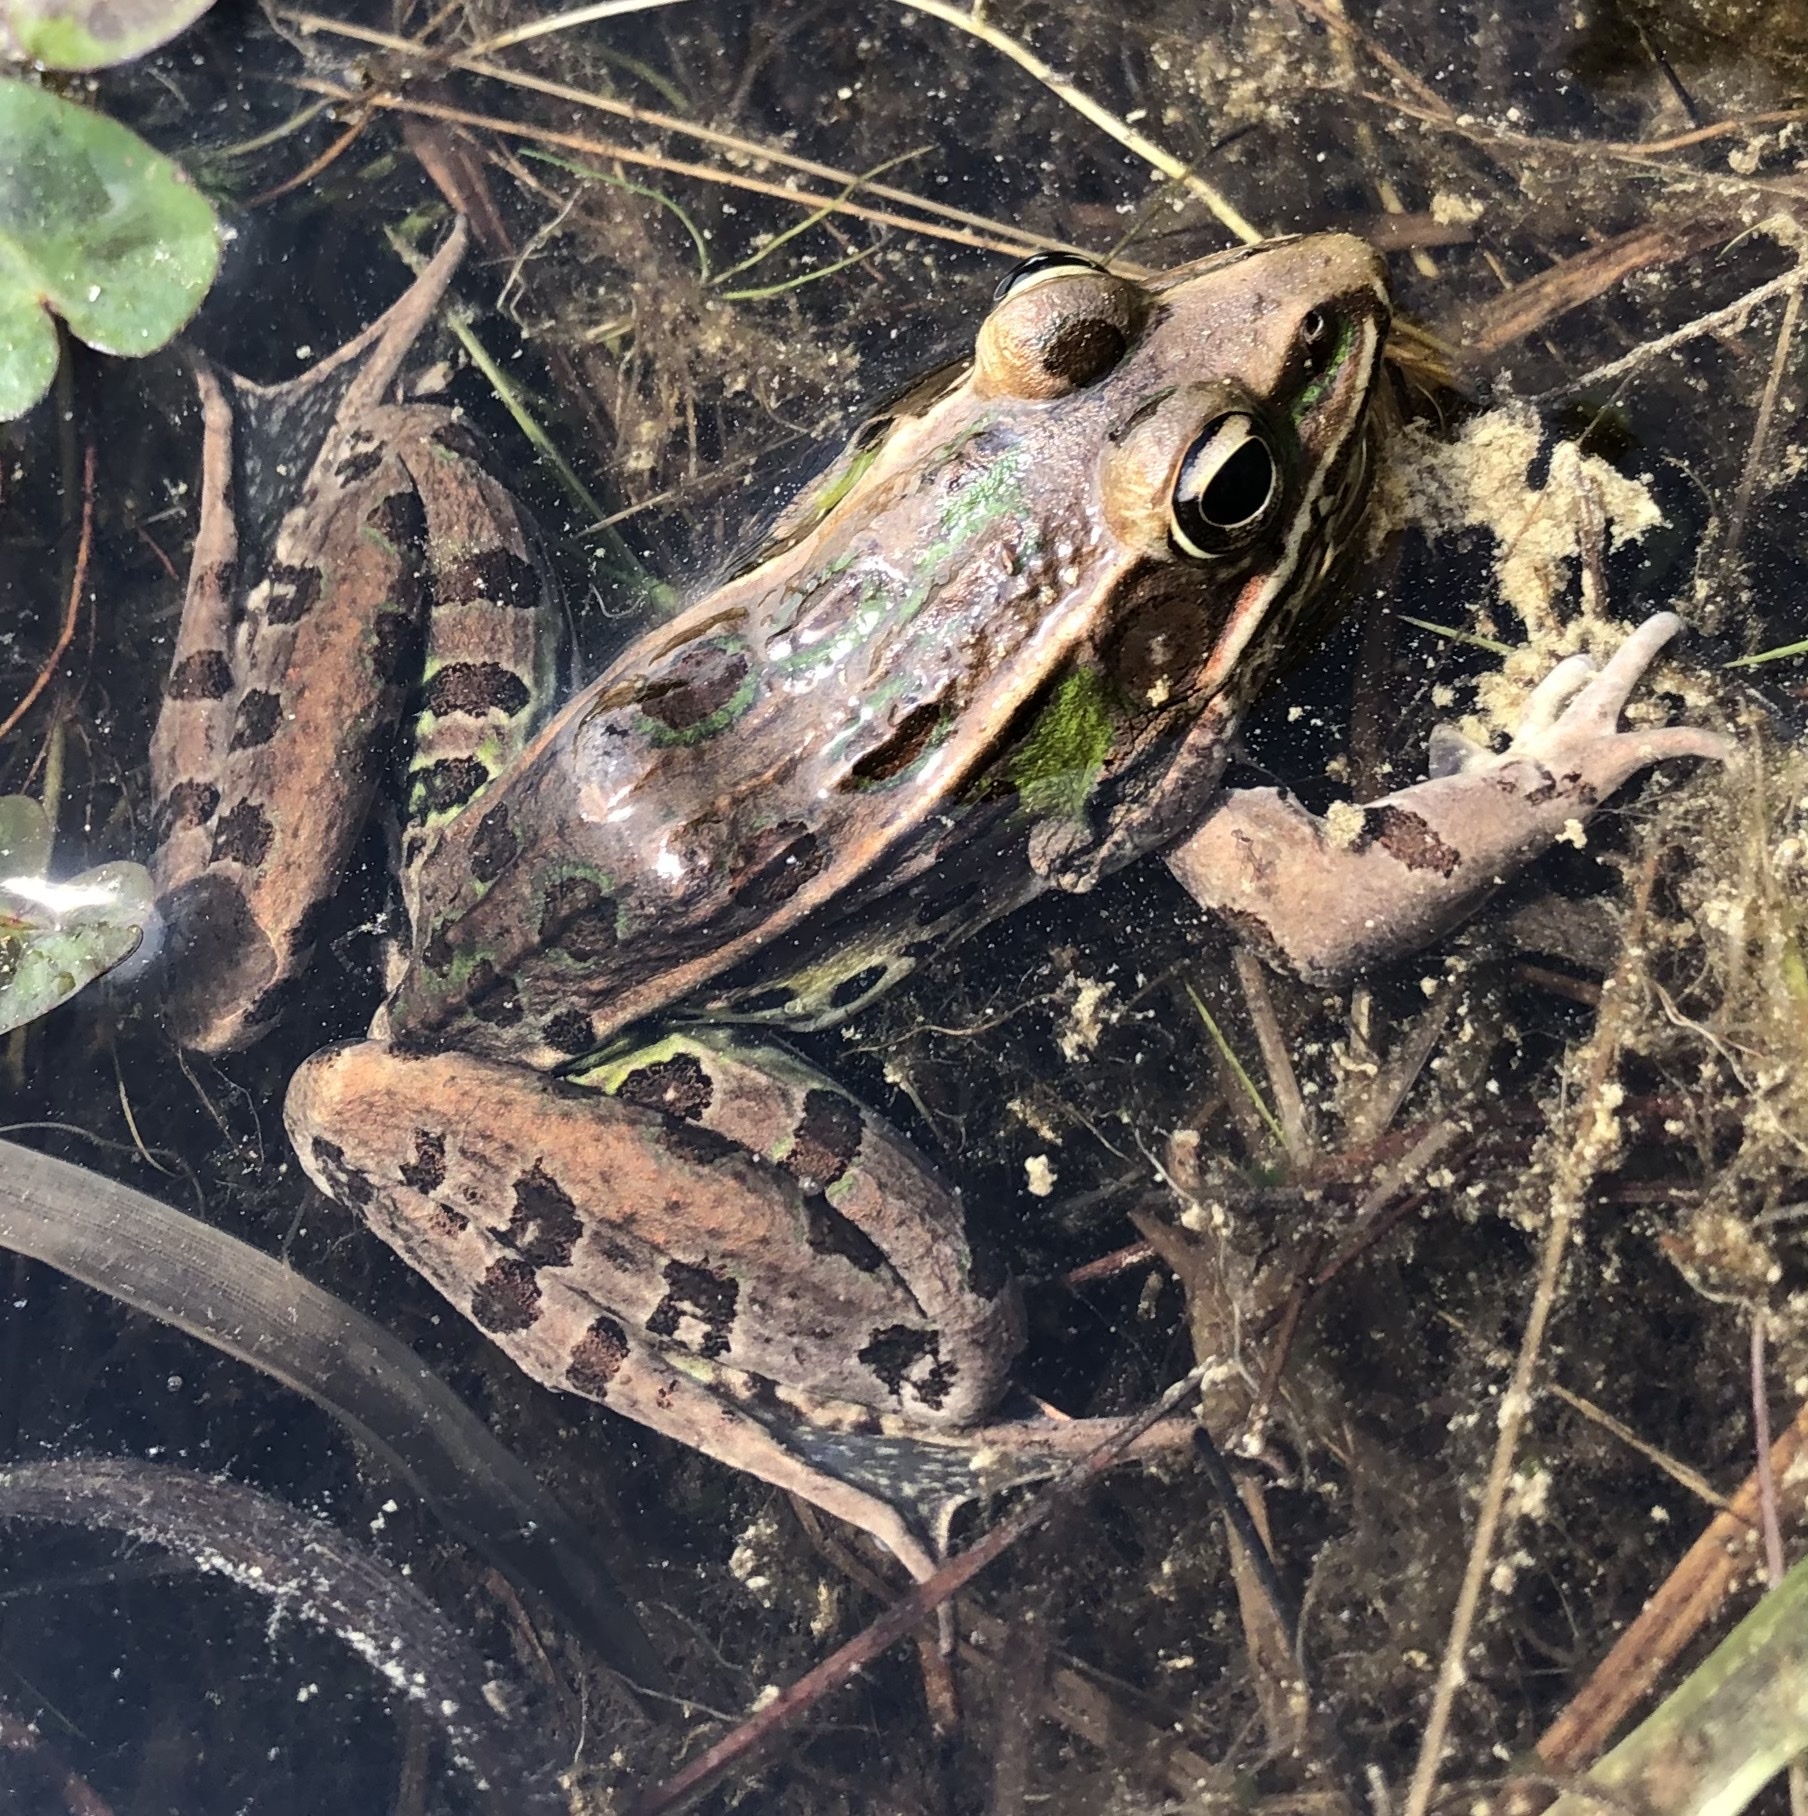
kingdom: Animalia
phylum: Chordata
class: Amphibia
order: Anura
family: Ranidae
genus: Lithobates
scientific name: Lithobates sphenocephalus
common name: Southern leopard frog
